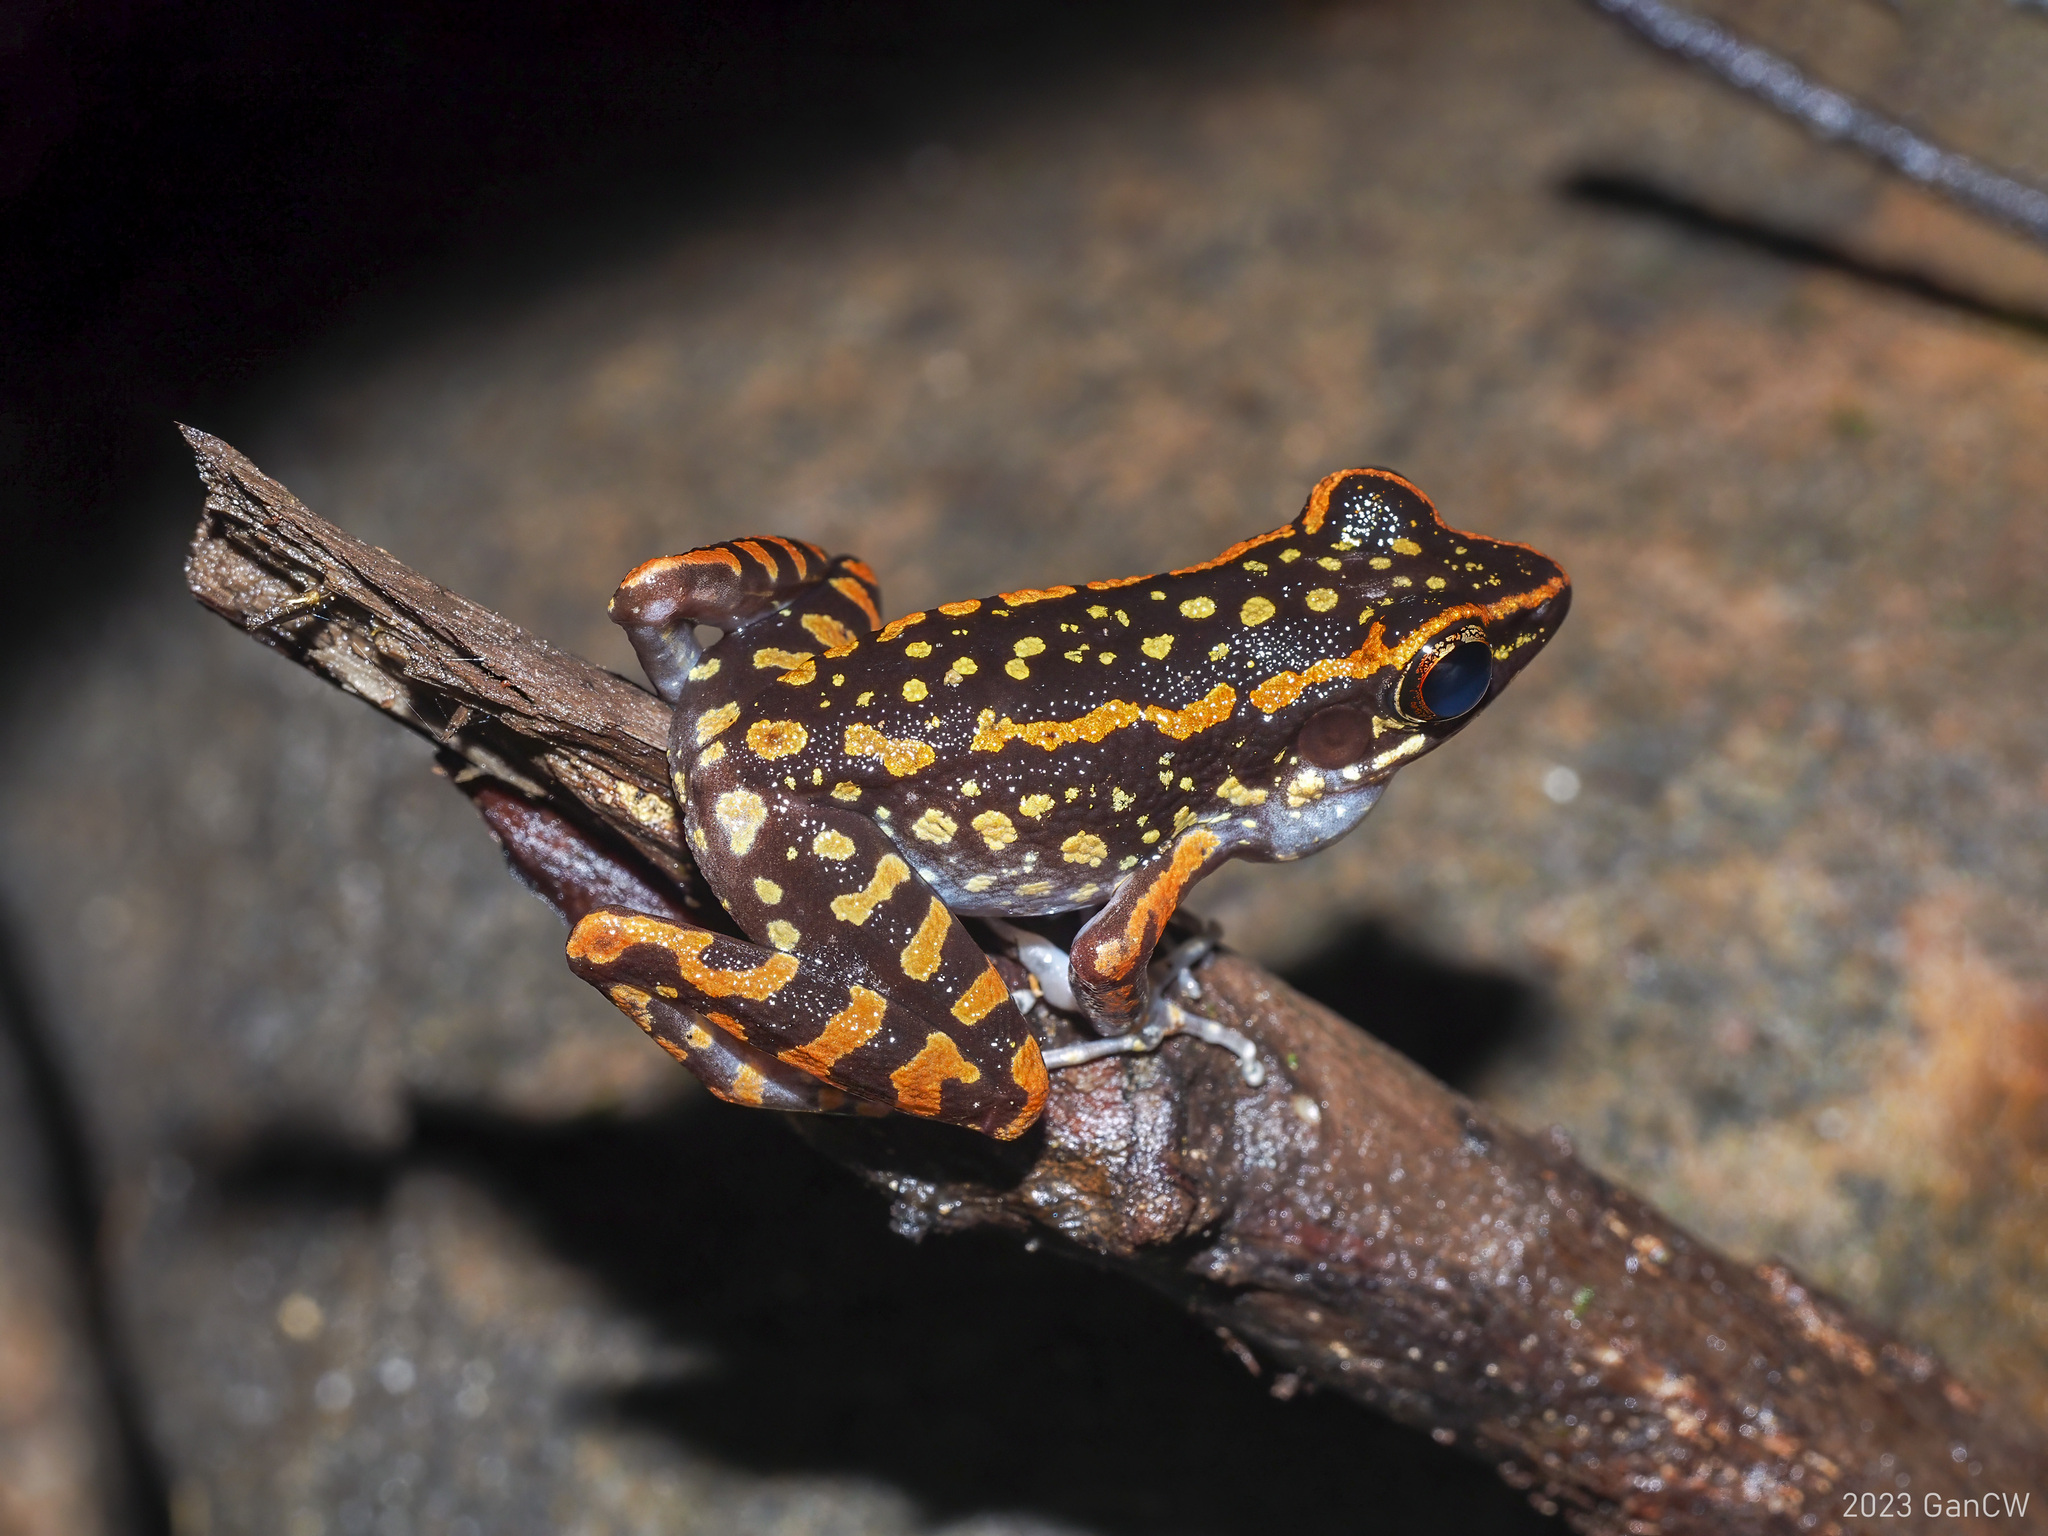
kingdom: Animalia
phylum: Chordata
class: Amphibia
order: Anura
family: Ranidae
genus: Pulchrana
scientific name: Pulchrana sundabarat
